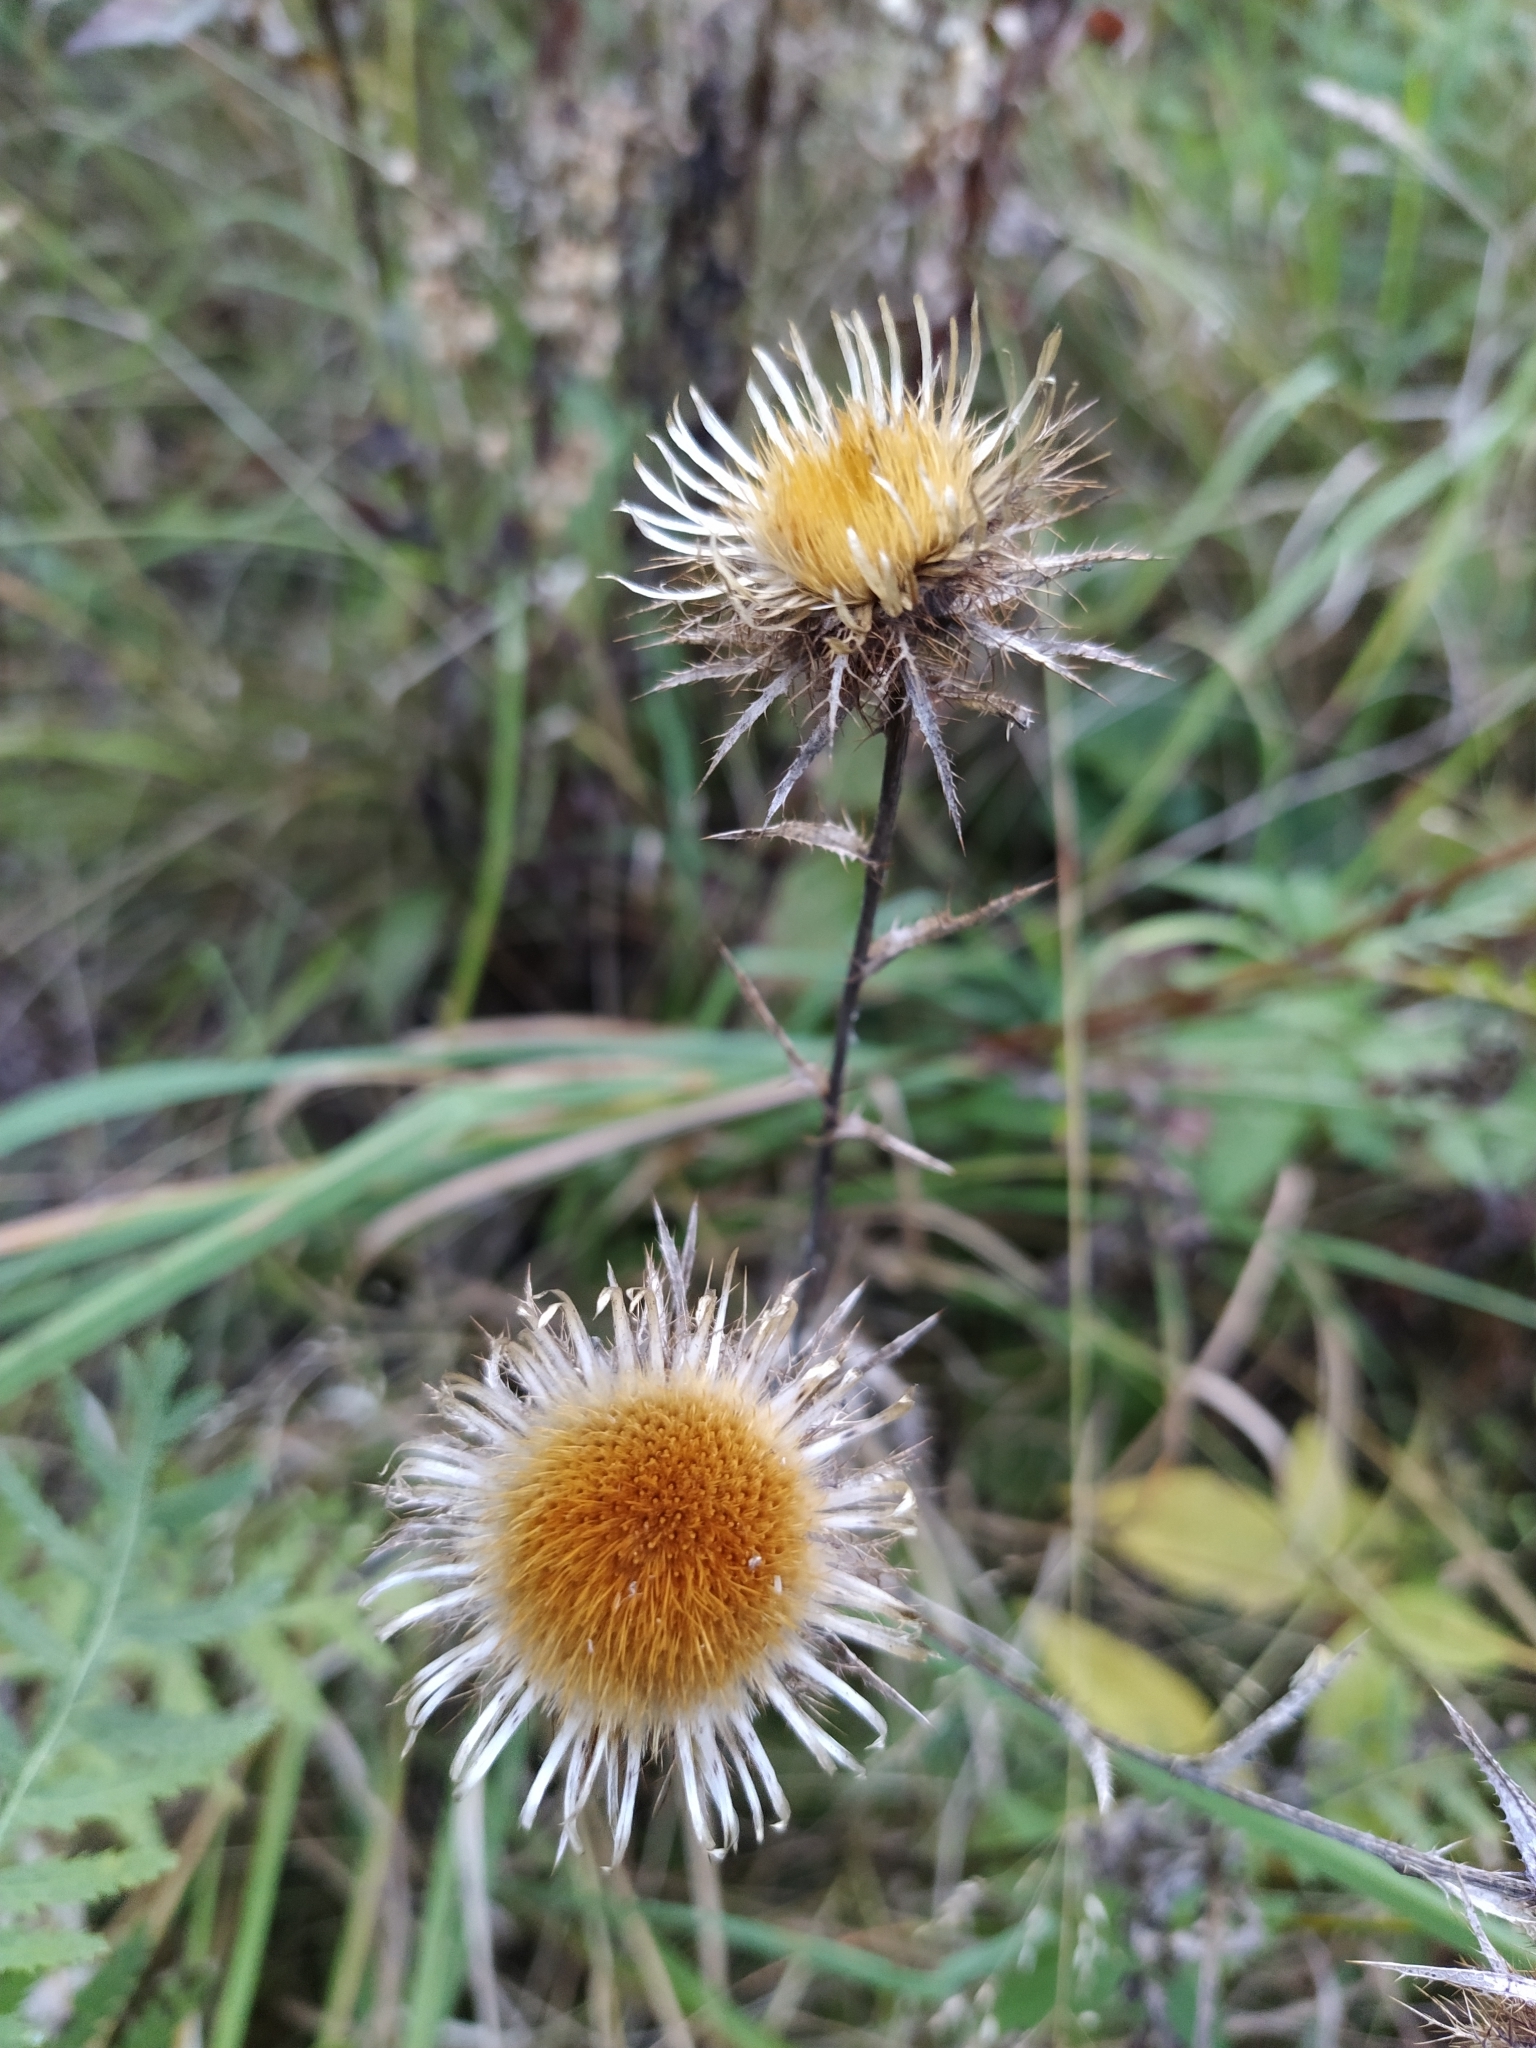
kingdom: Plantae
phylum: Tracheophyta
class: Magnoliopsida
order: Asterales
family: Asteraceae
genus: Carlina
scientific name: Carlina biebersteinii
